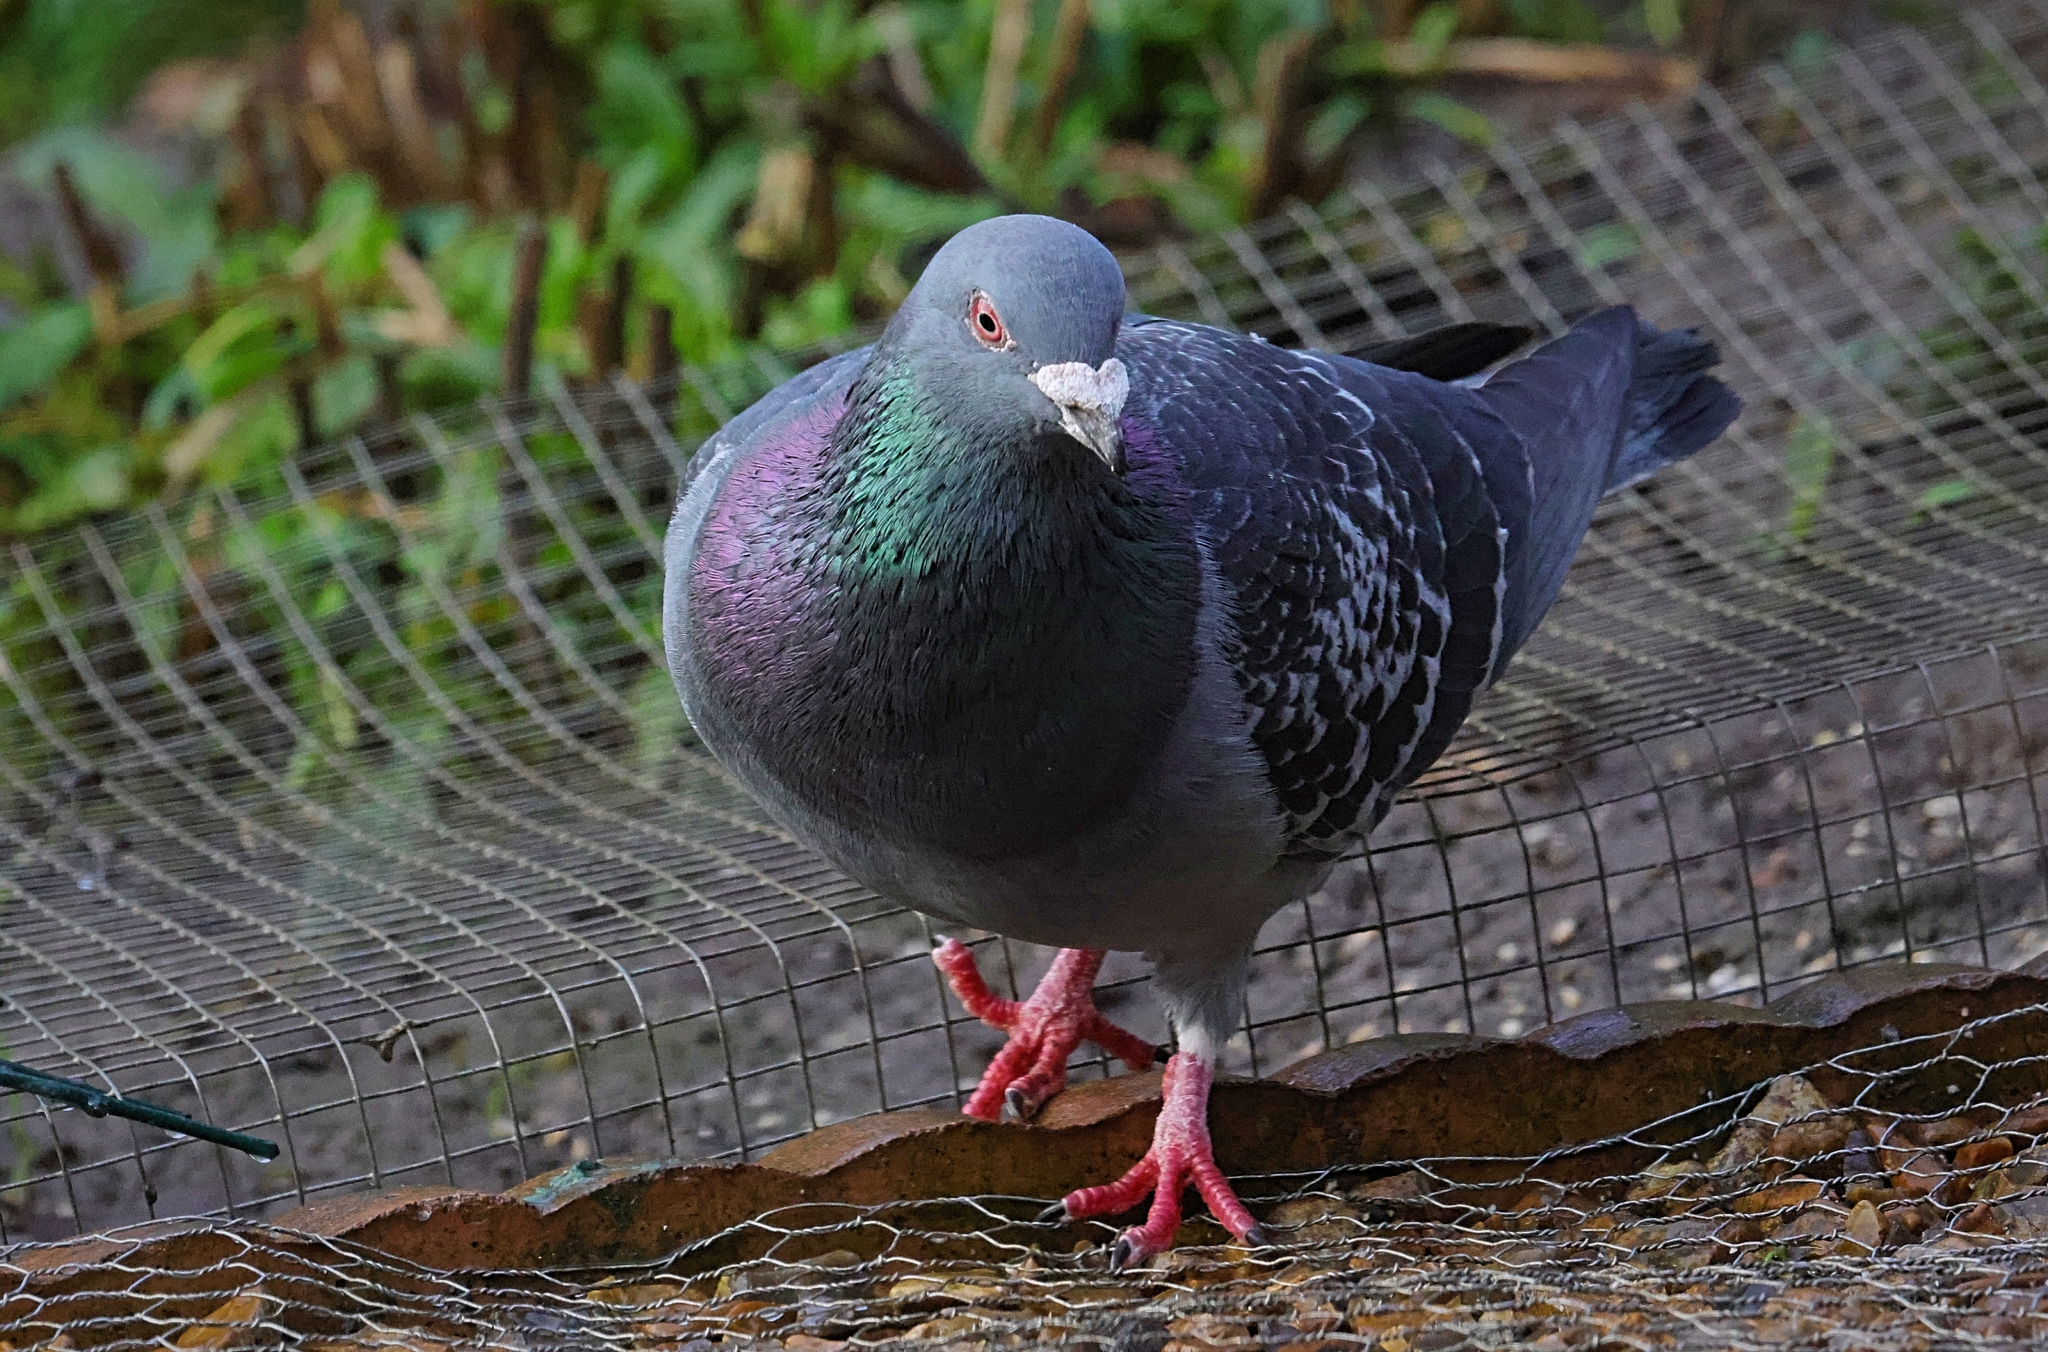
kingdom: Animalia
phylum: Chordata
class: Aves
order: Columbiformes
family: Columbidae
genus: Columba
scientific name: Columba livia
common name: Rock pigeon
